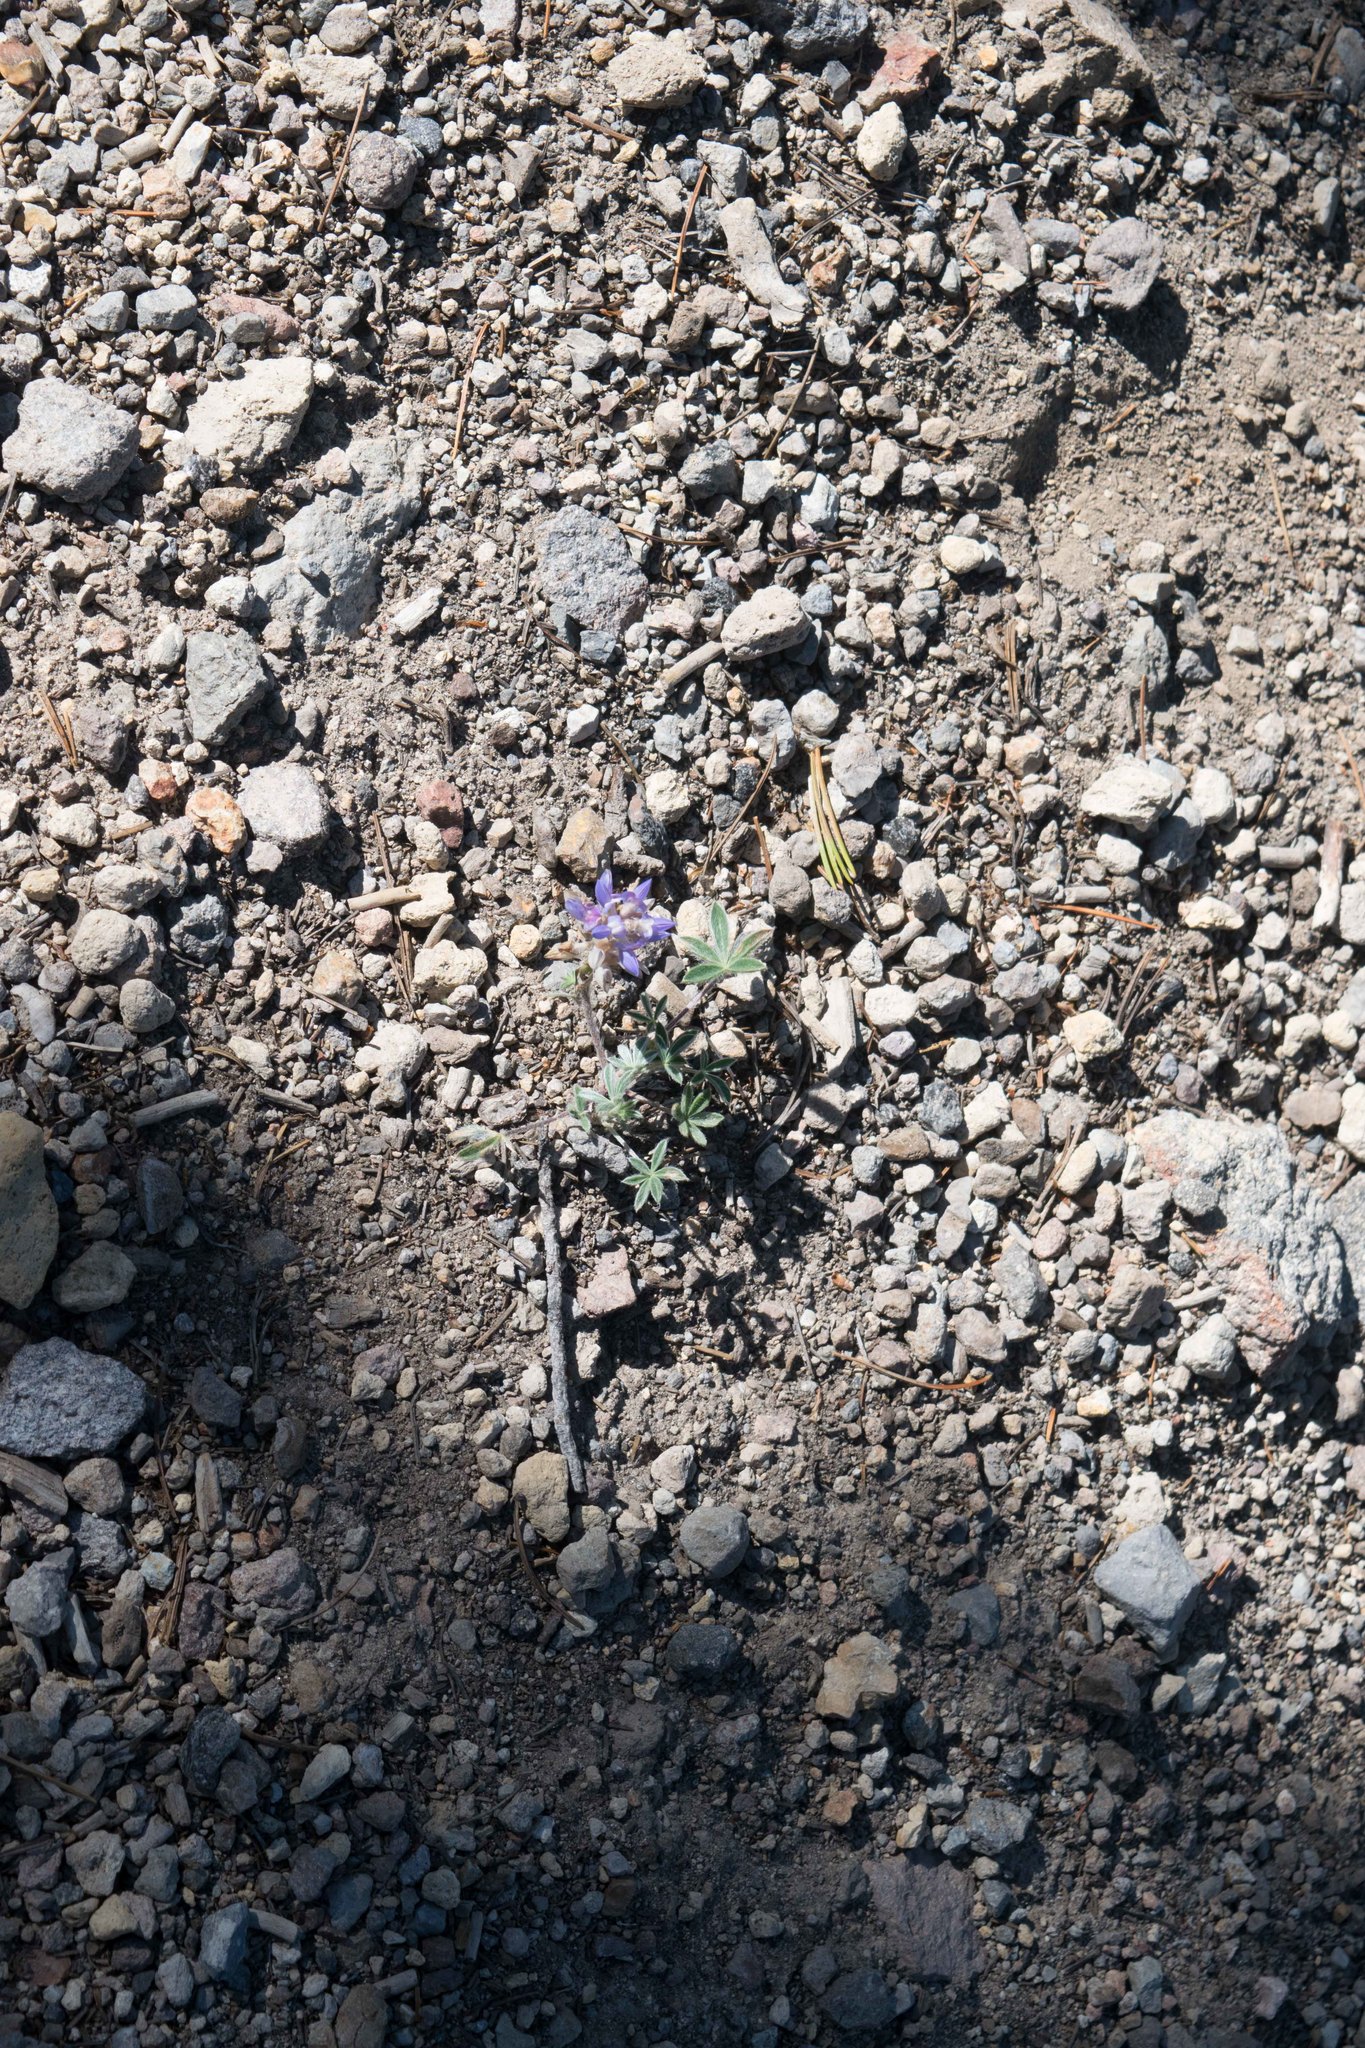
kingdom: Plantae
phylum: Tracheophyta
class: Magnoliopsida
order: Fabales
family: Fabaceae
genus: Lupinus
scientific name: Lupinus lepidus
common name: Prairie lupine
